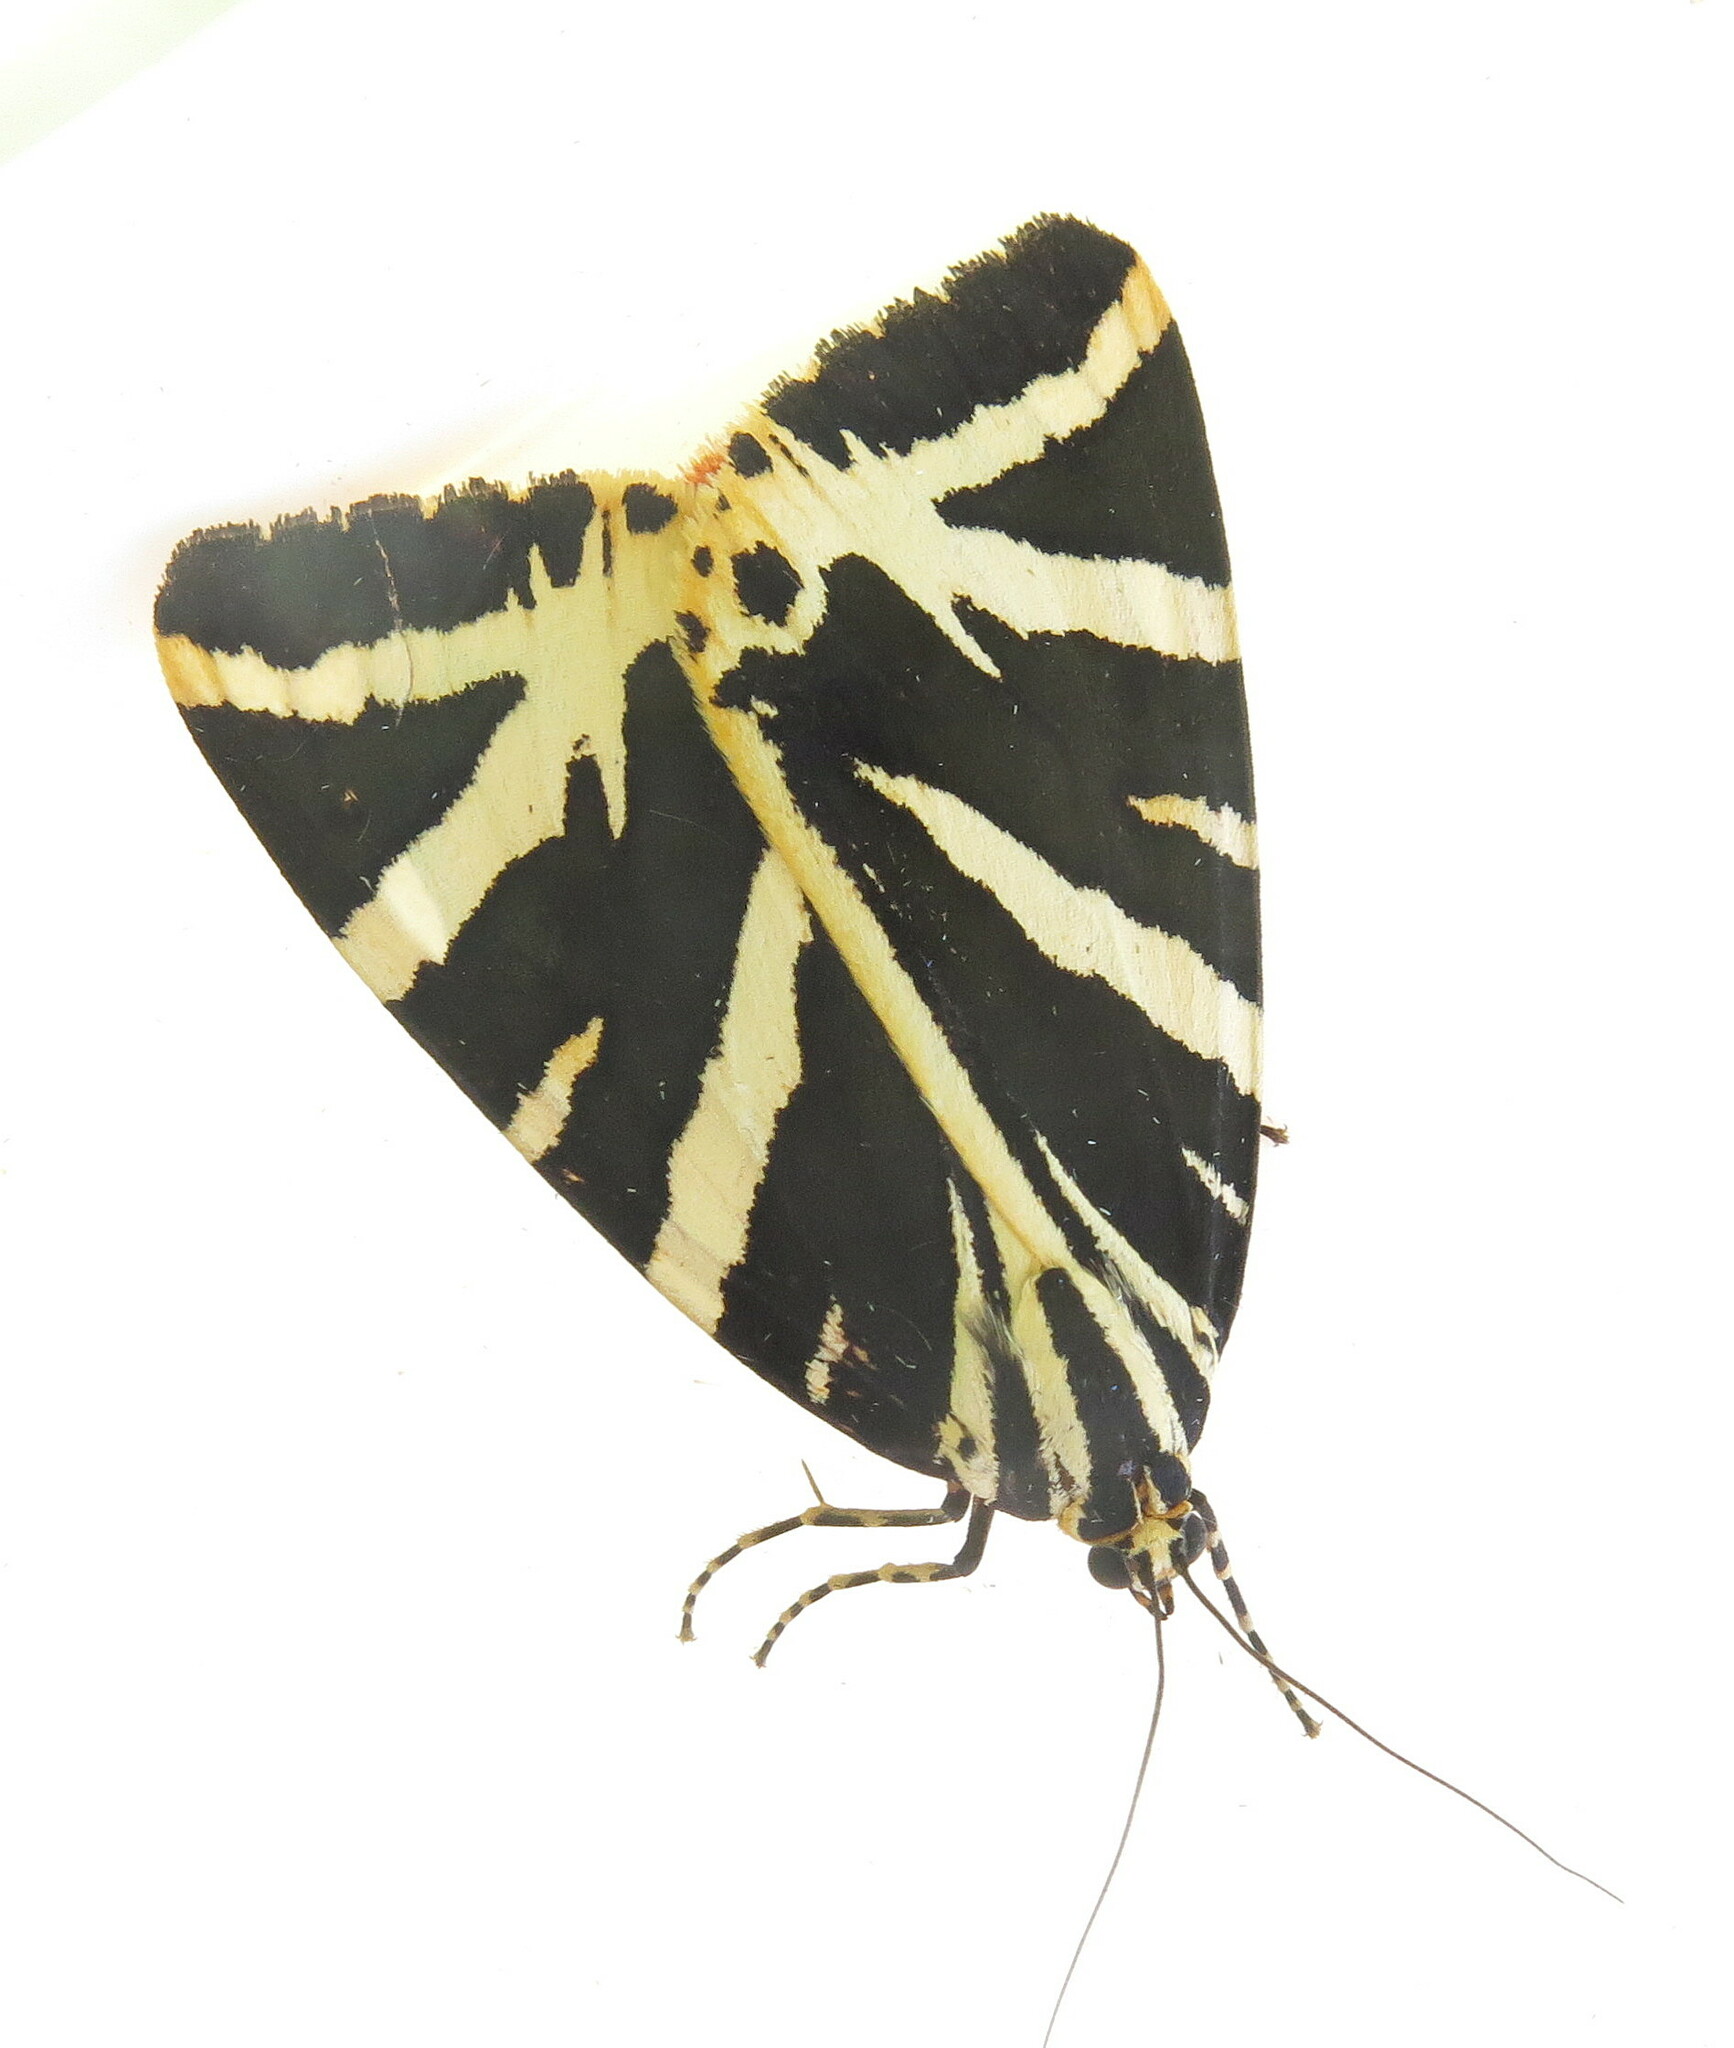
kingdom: Animalia
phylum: Arthropoda
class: Insecta
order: Lepidoptera
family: Erebidae
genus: Euplagia
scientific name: Euplagia quadripunctaria
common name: Jersey tiger
